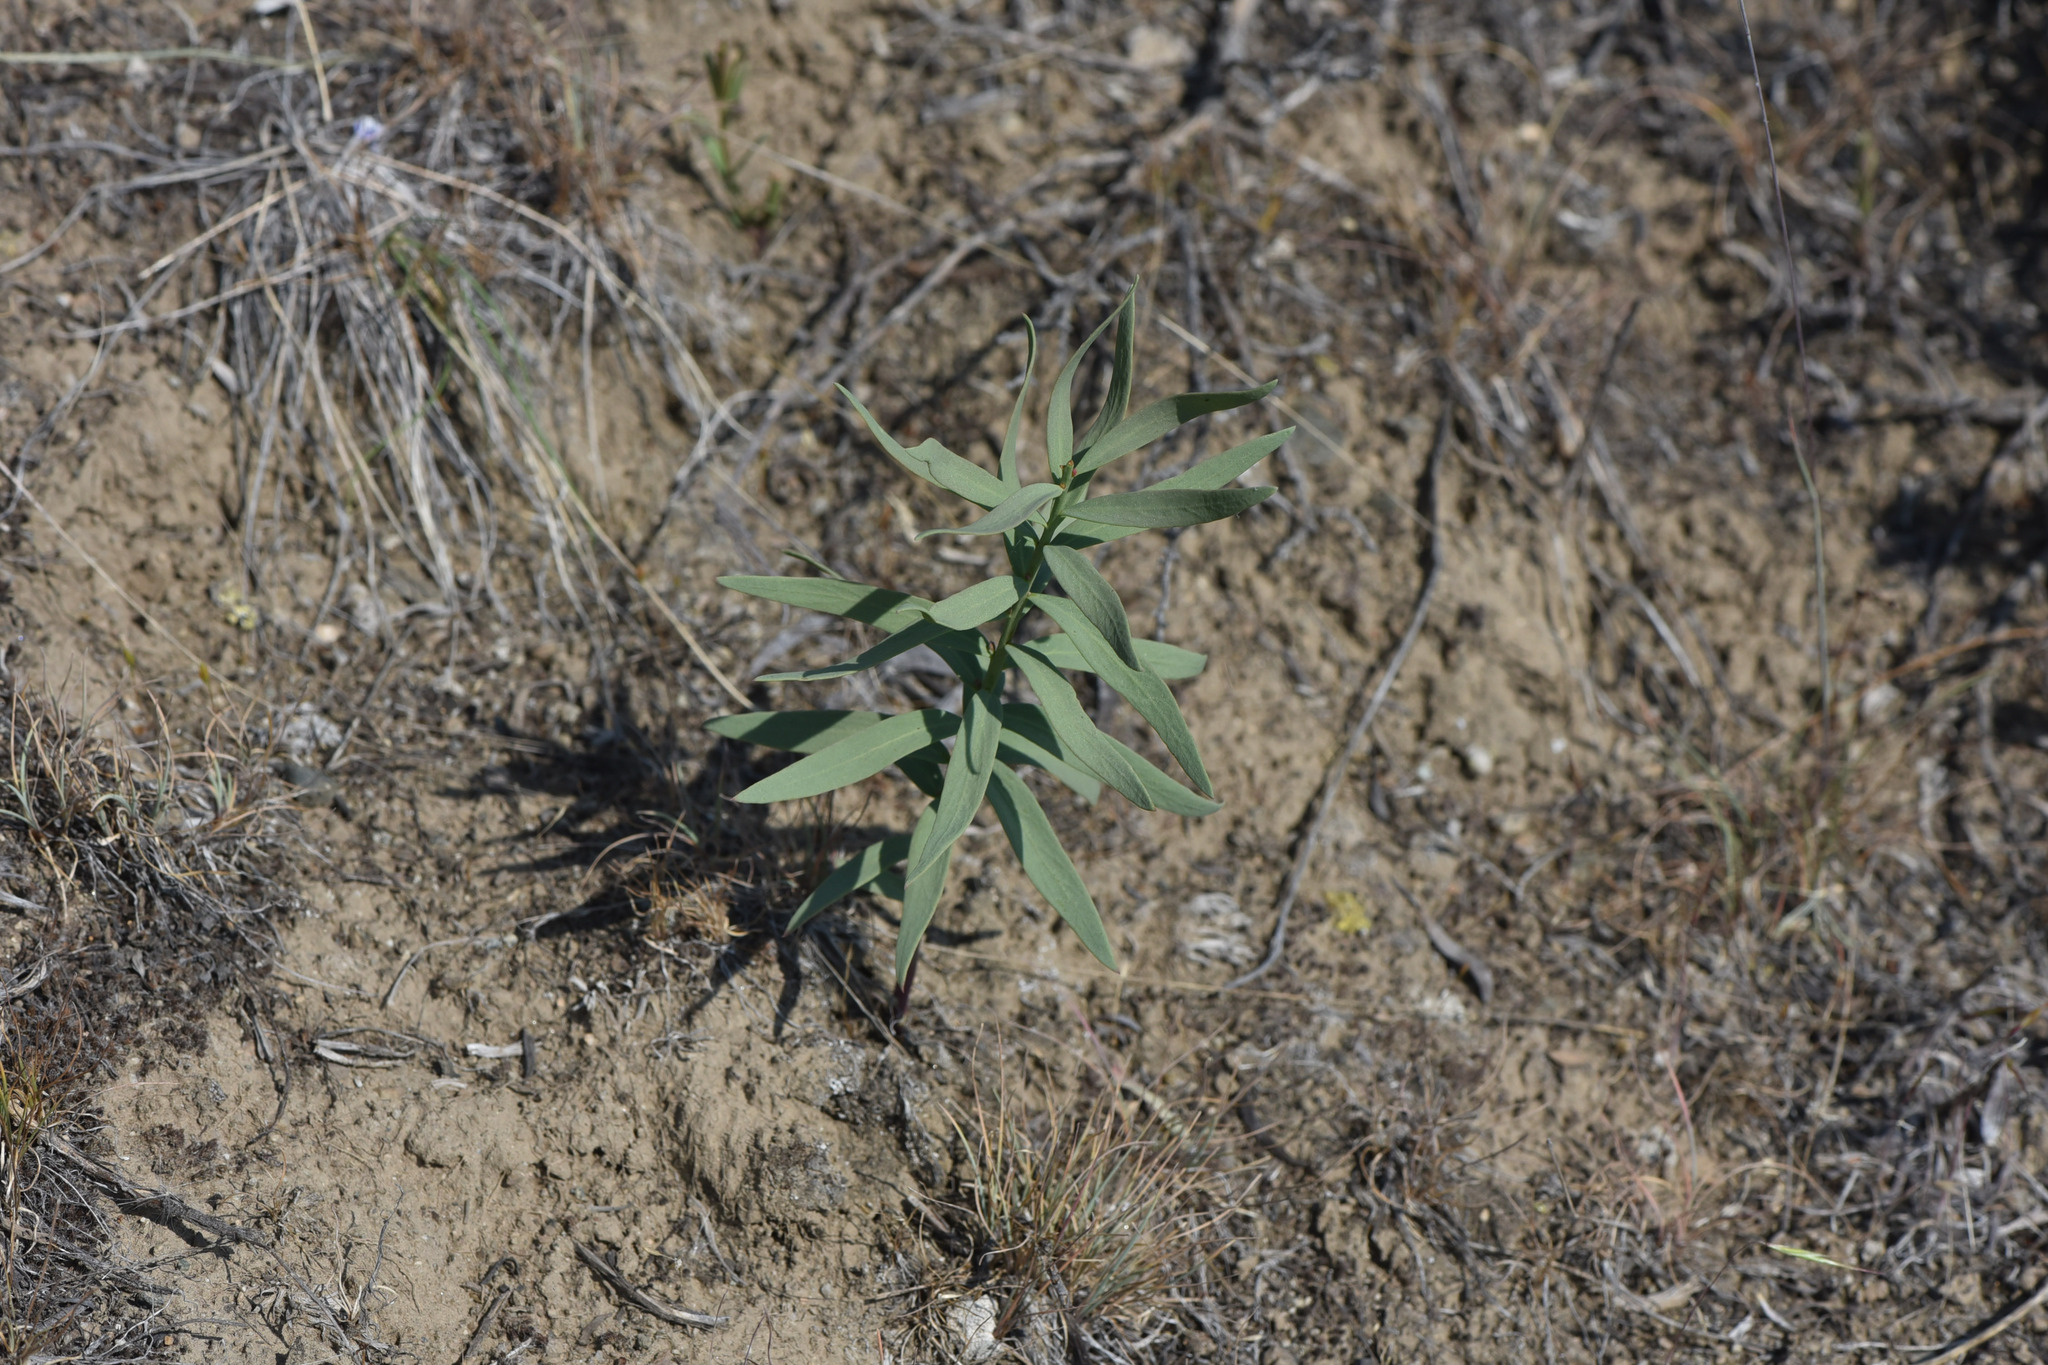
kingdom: Plantae
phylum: Tracheophyta
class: Magnoliopsida
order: Santalales
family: Comandraceae
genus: Comandra
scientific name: Comandra umbellata
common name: Bastard toadflax
